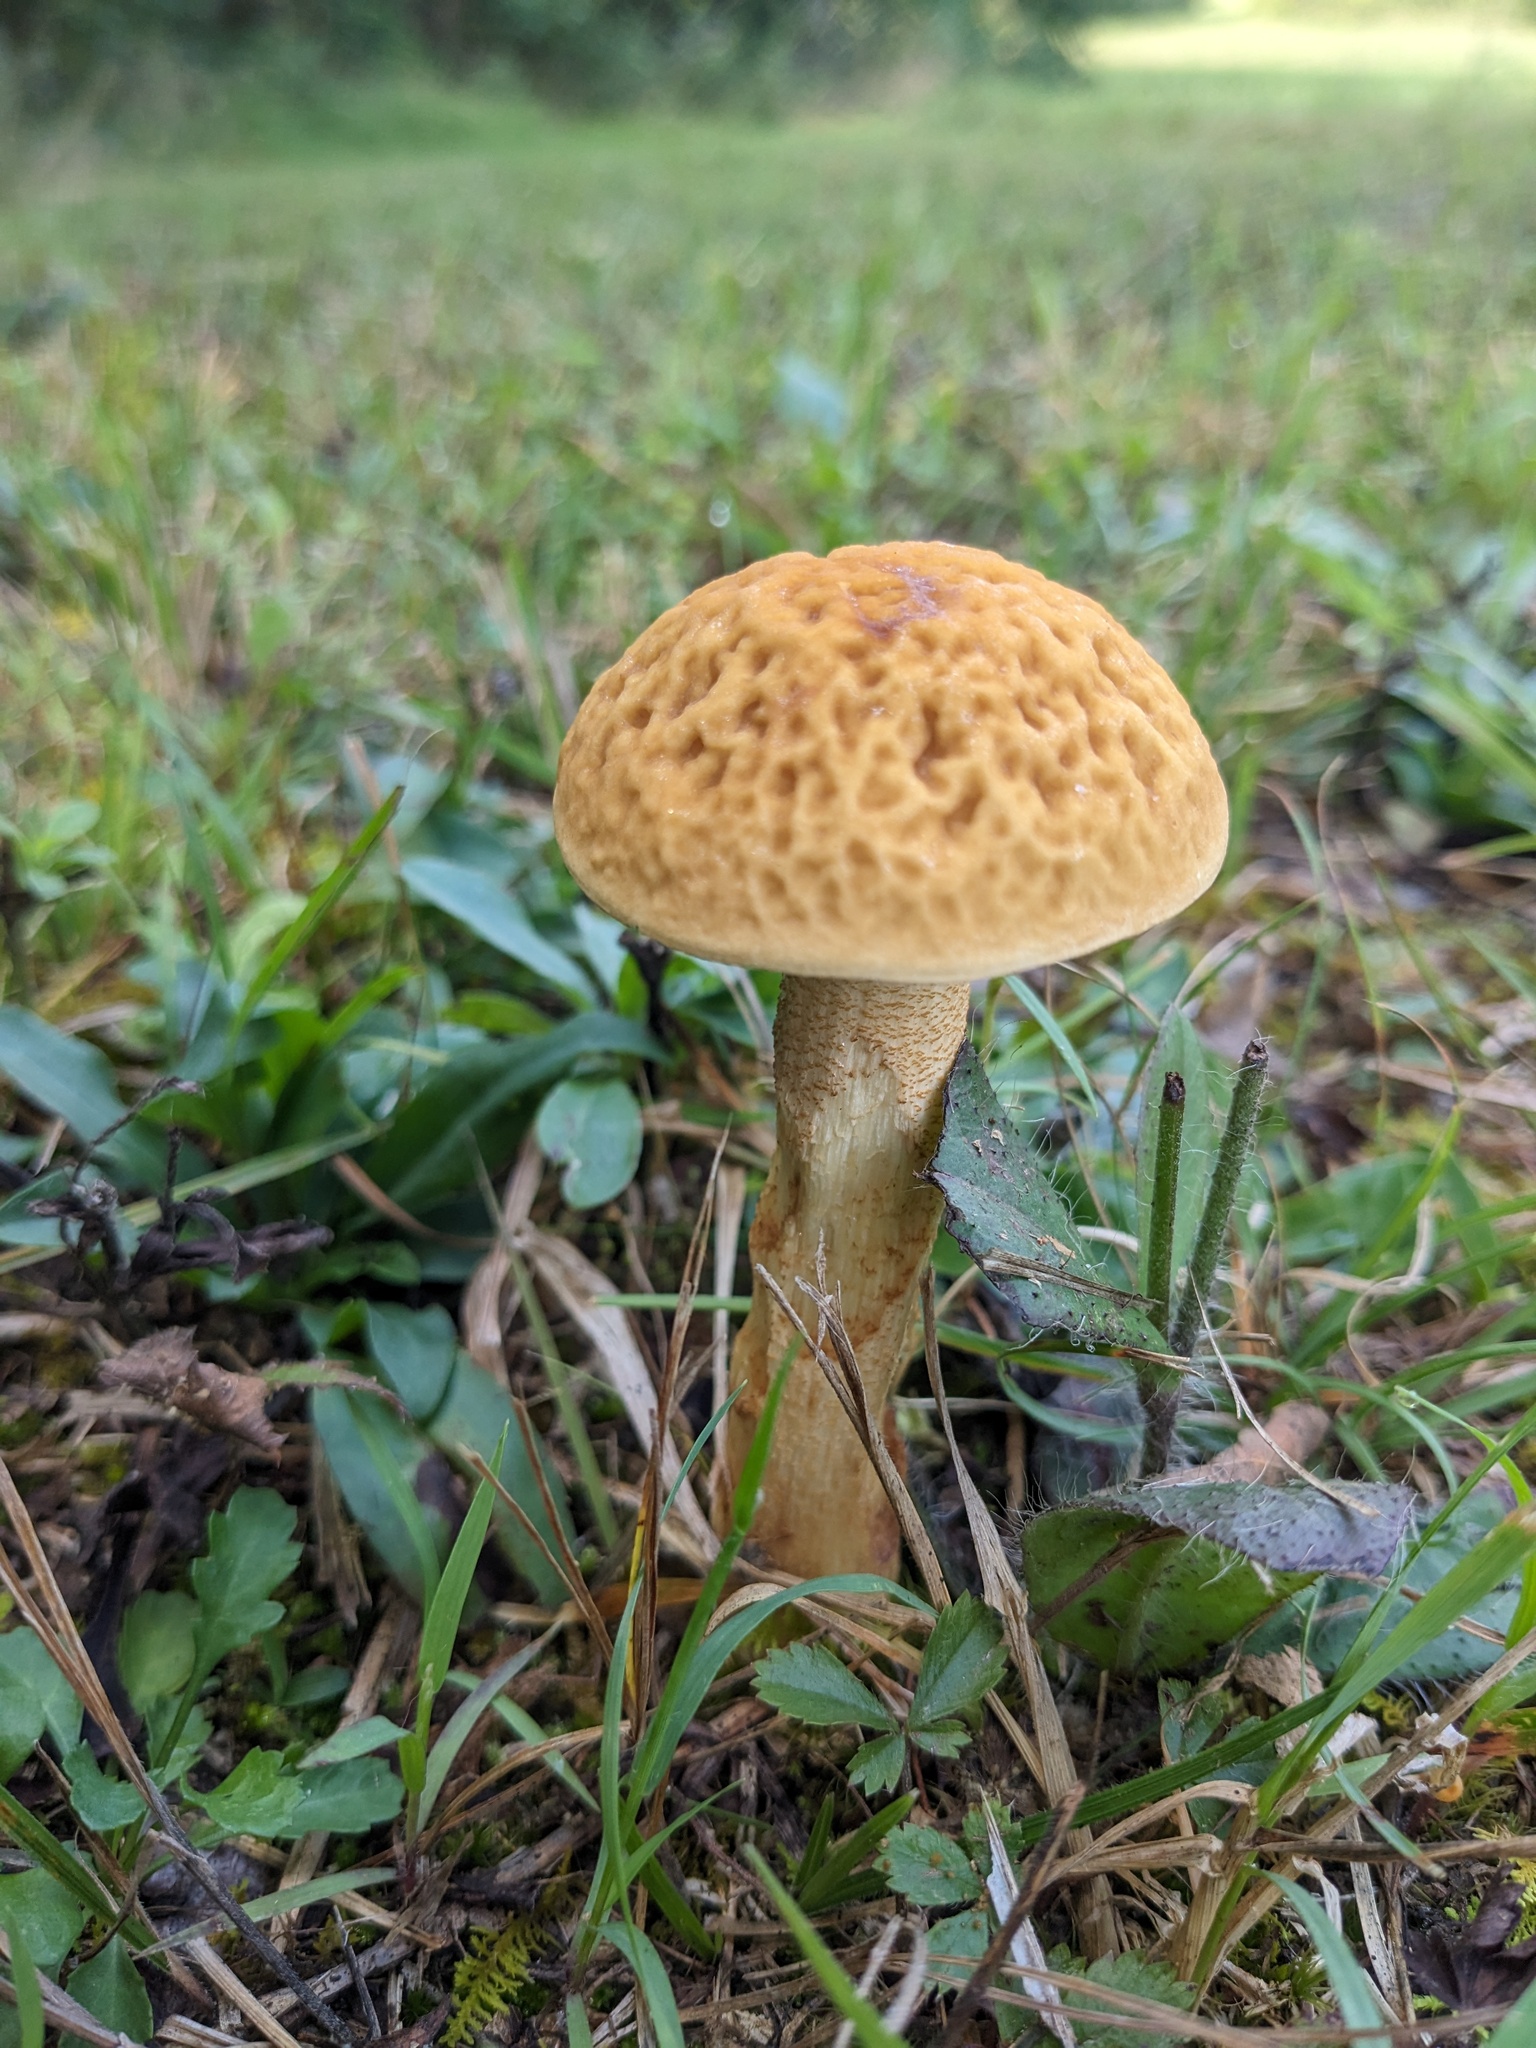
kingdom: Fungi
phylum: Basidiomycota
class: Agaricomycetes
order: Boletales
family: Boletaceae
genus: Leccinellum
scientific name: Leccinellum rugosiceps
